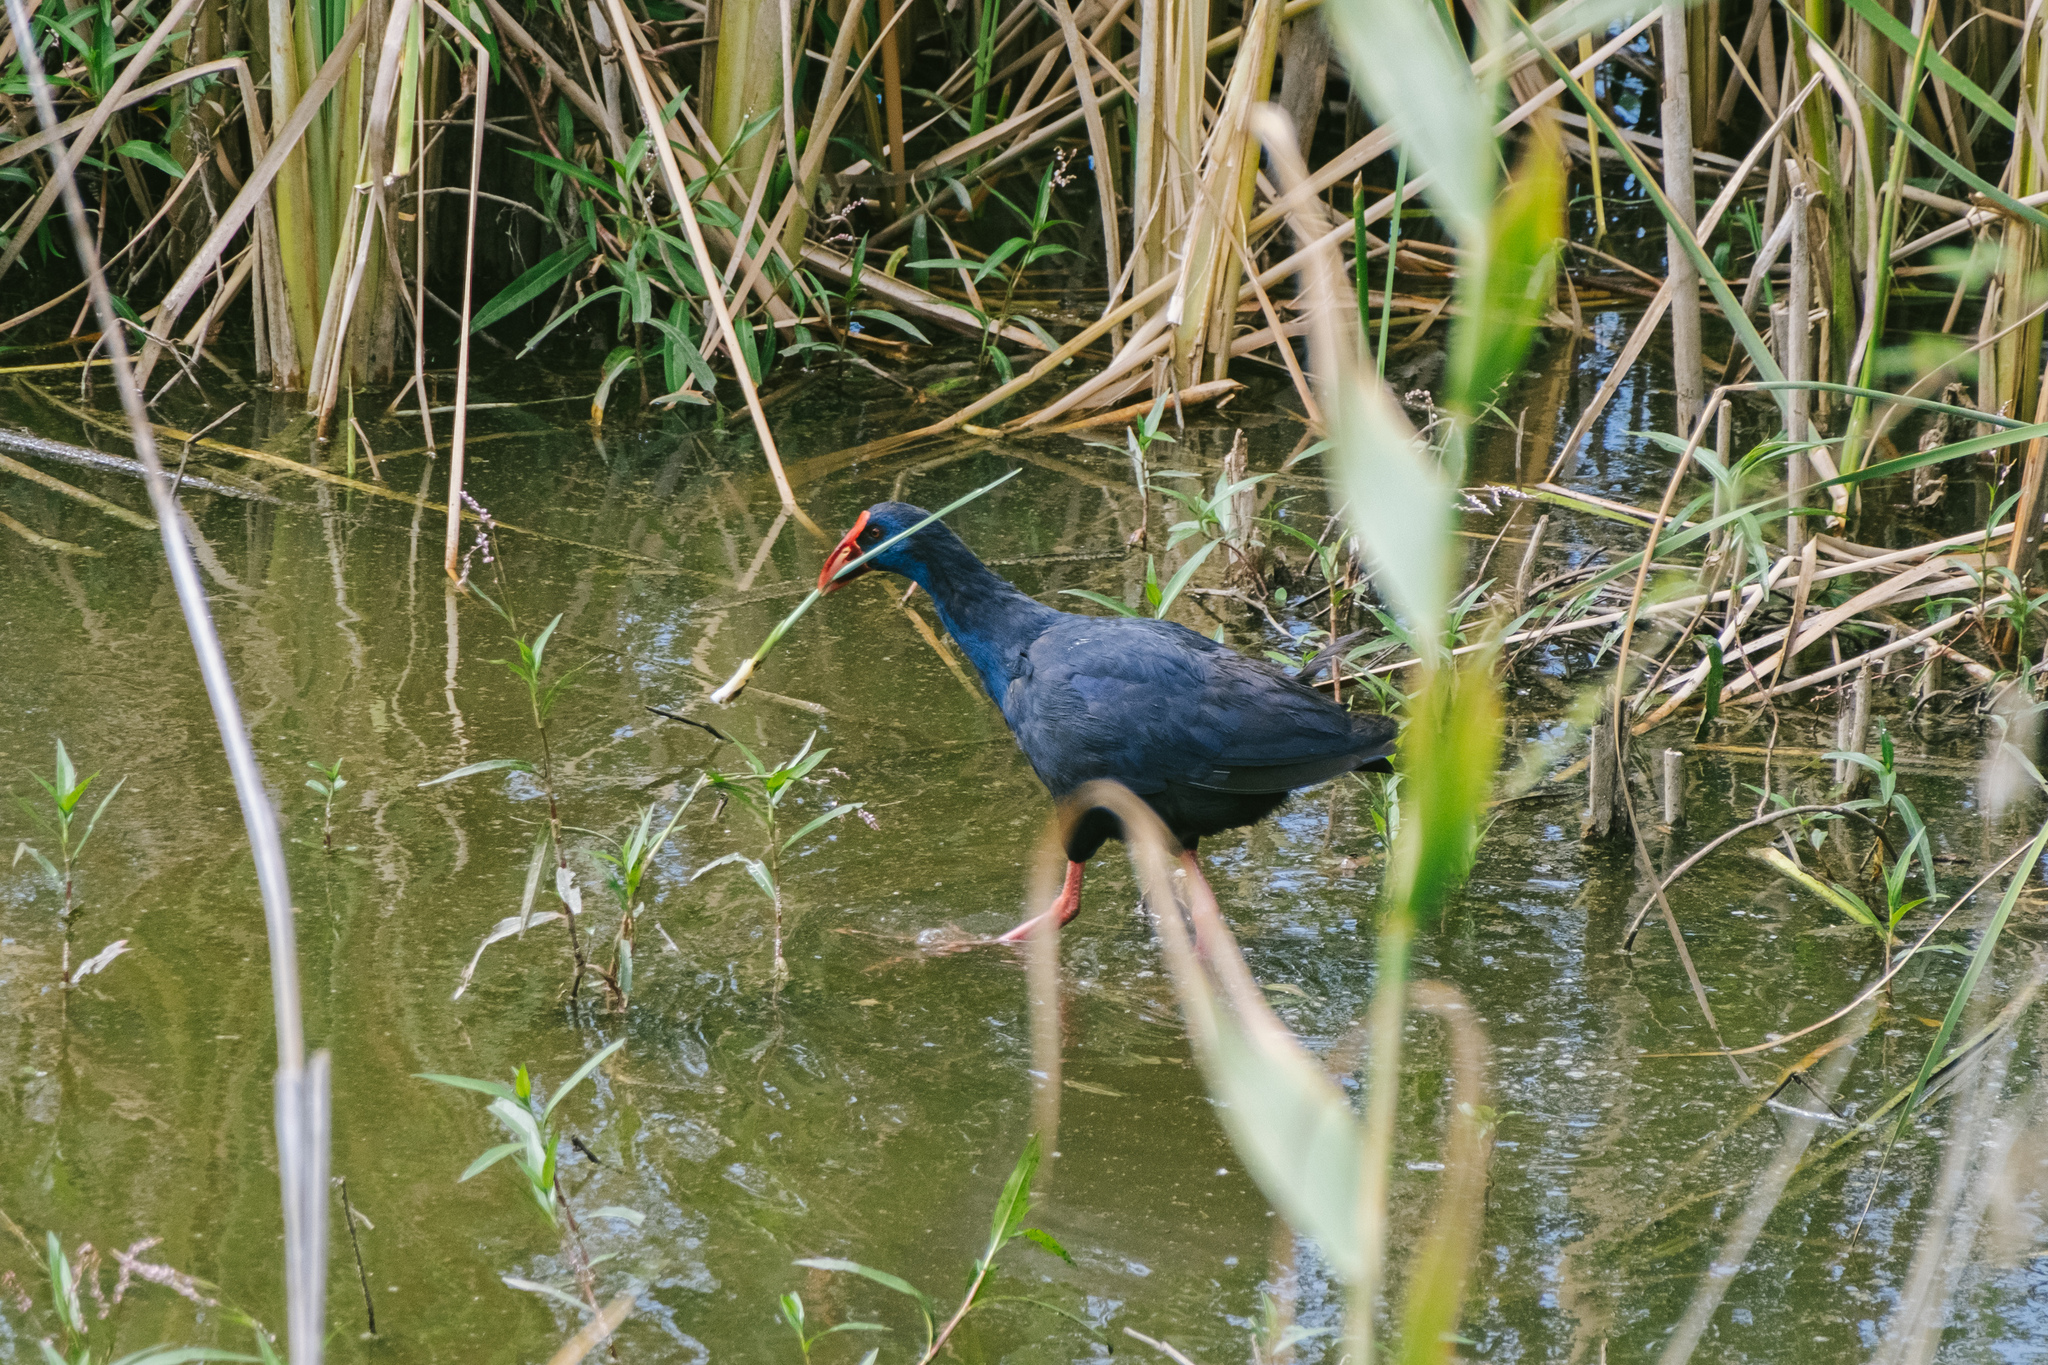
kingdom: Animalia
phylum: Chordata
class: Aves
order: Gruiformes
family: Rallidae
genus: Porphyrio
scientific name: Porphyrio porphyrio
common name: Purple swamphen
